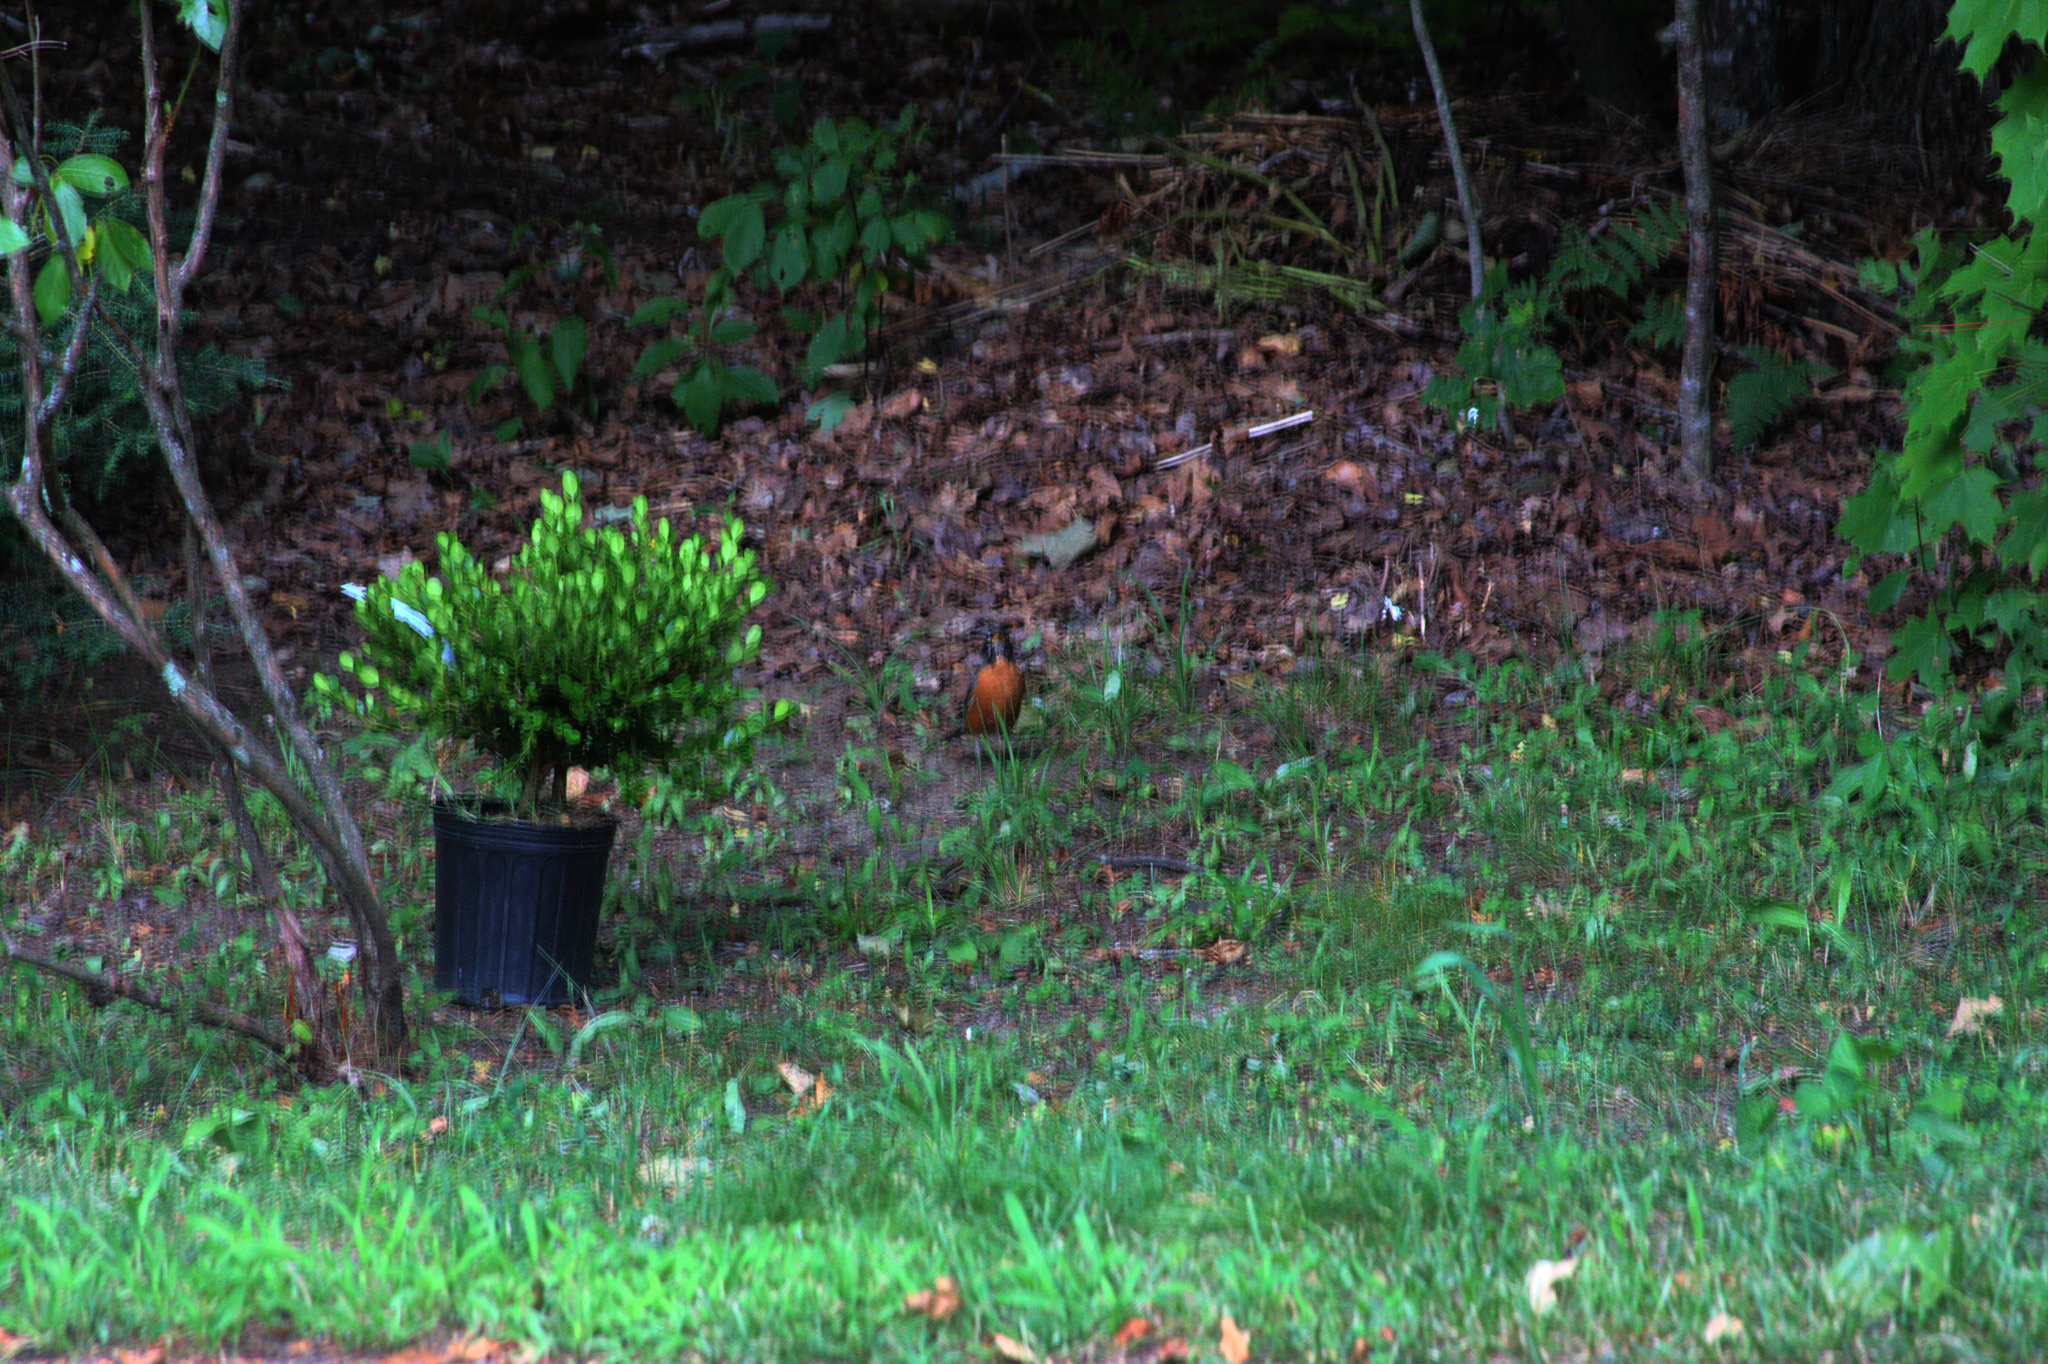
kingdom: Animalia
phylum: Chordata
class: Aves
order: Passeriformes
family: Turdidae
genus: Turdus
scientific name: Turdus migratorius
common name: American robin
